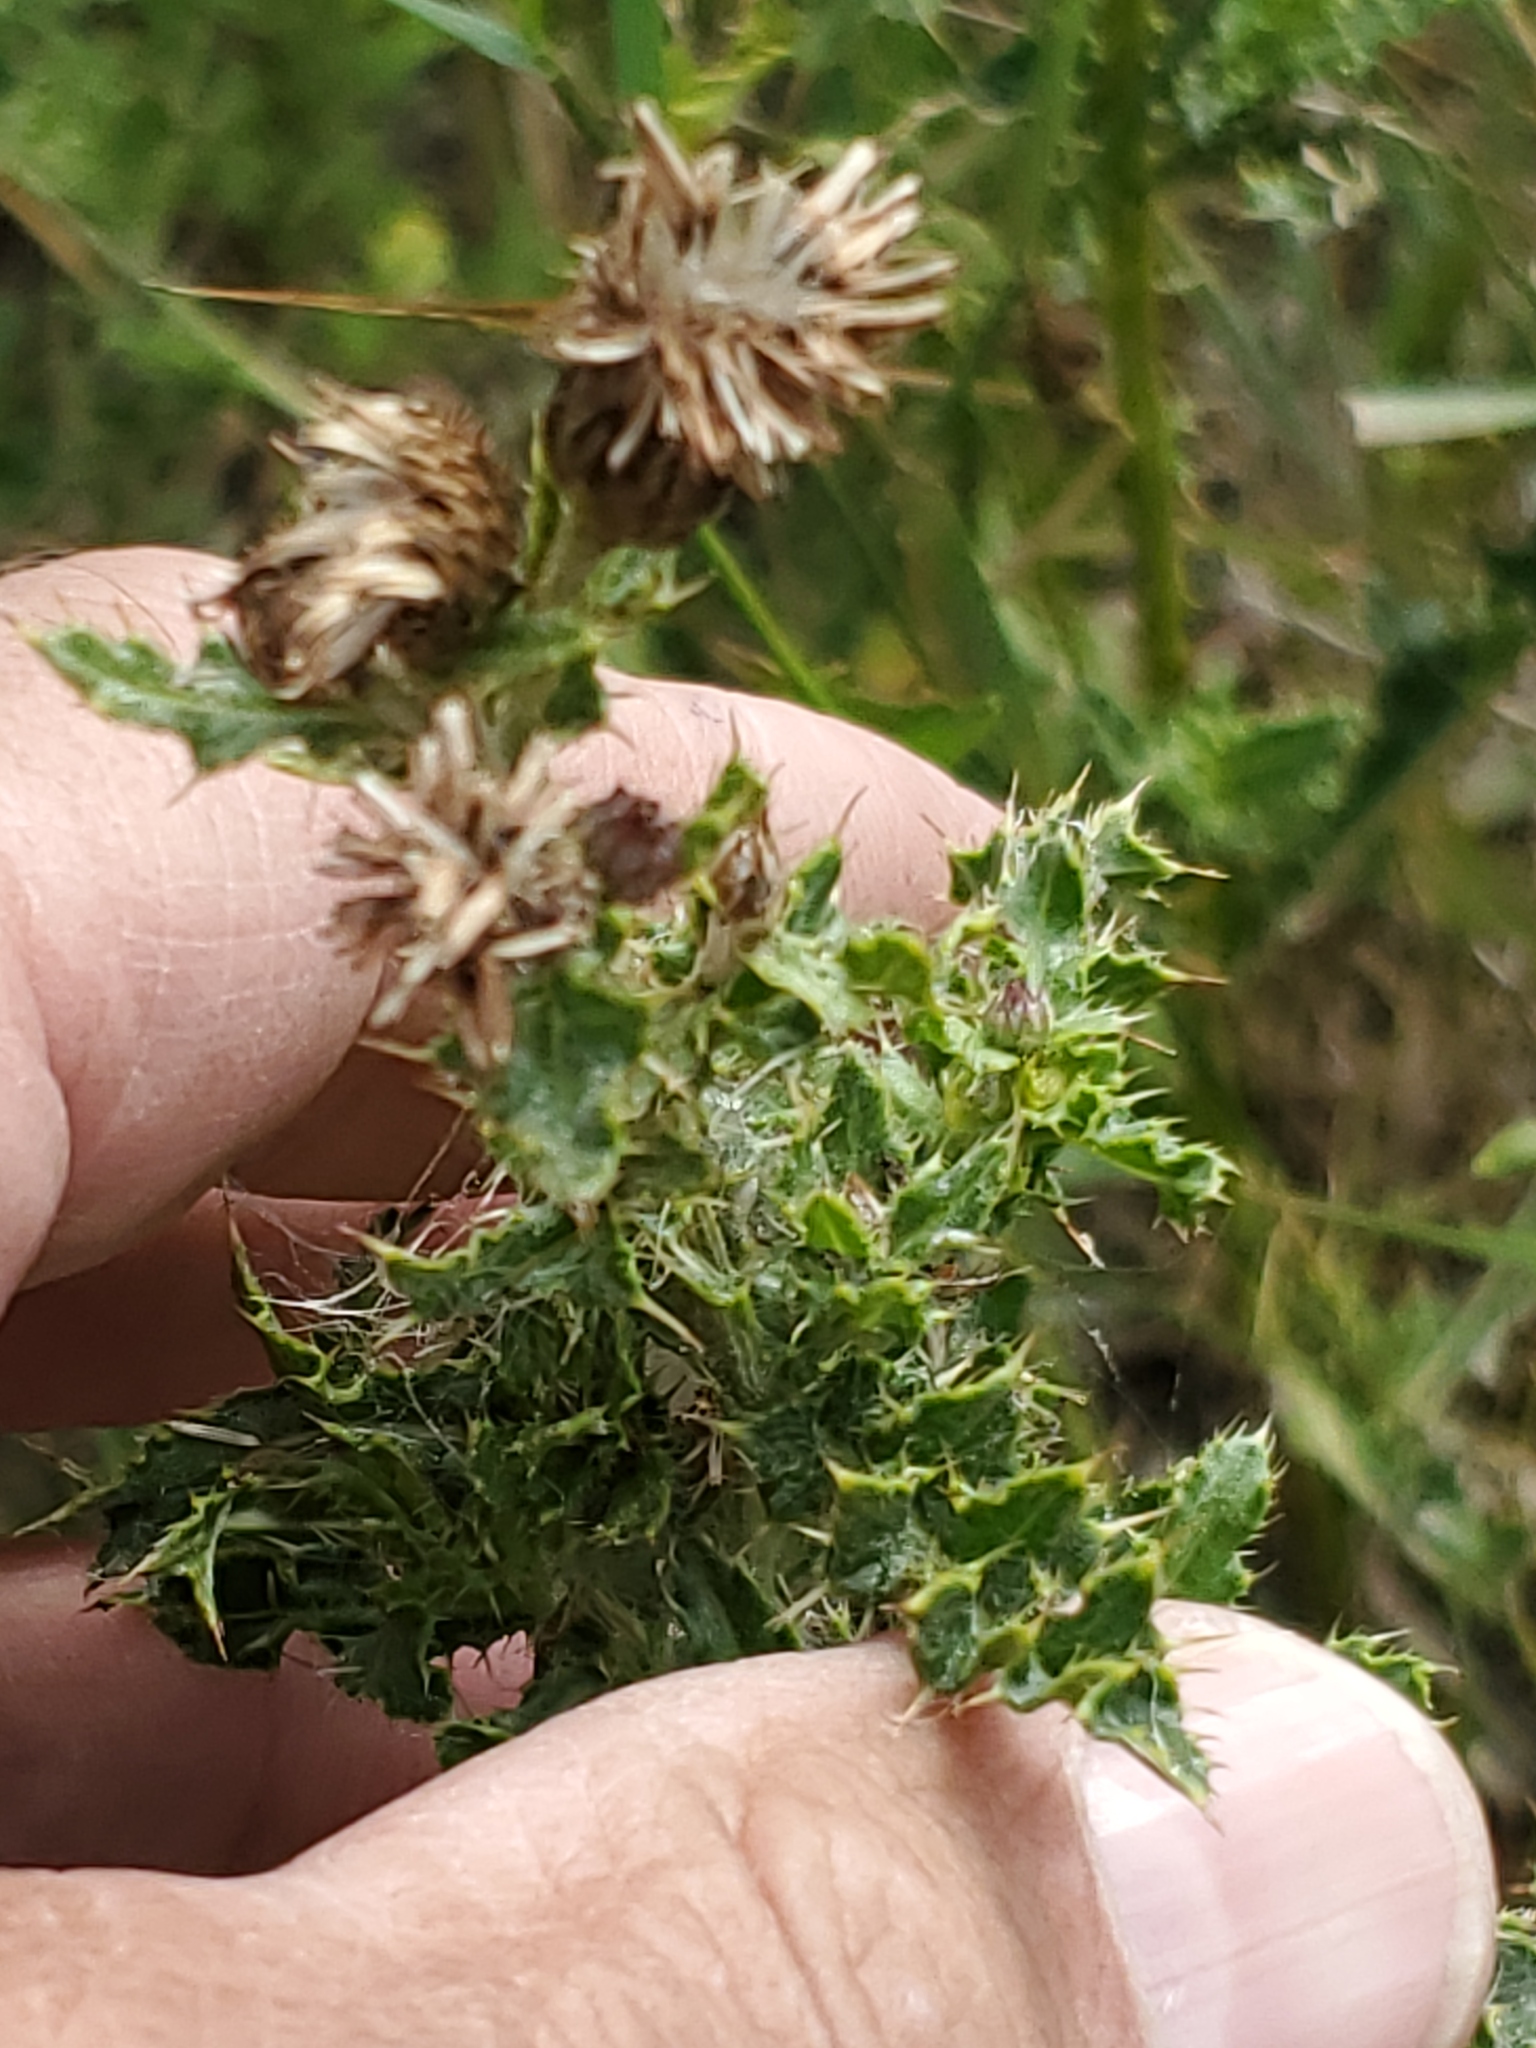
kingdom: Plantae
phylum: Tracheophyta
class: Magnoliopsida
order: Asterales
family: Asteraceae
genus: Cirsium
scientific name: Cirsium arvense
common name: Creeping thistle
